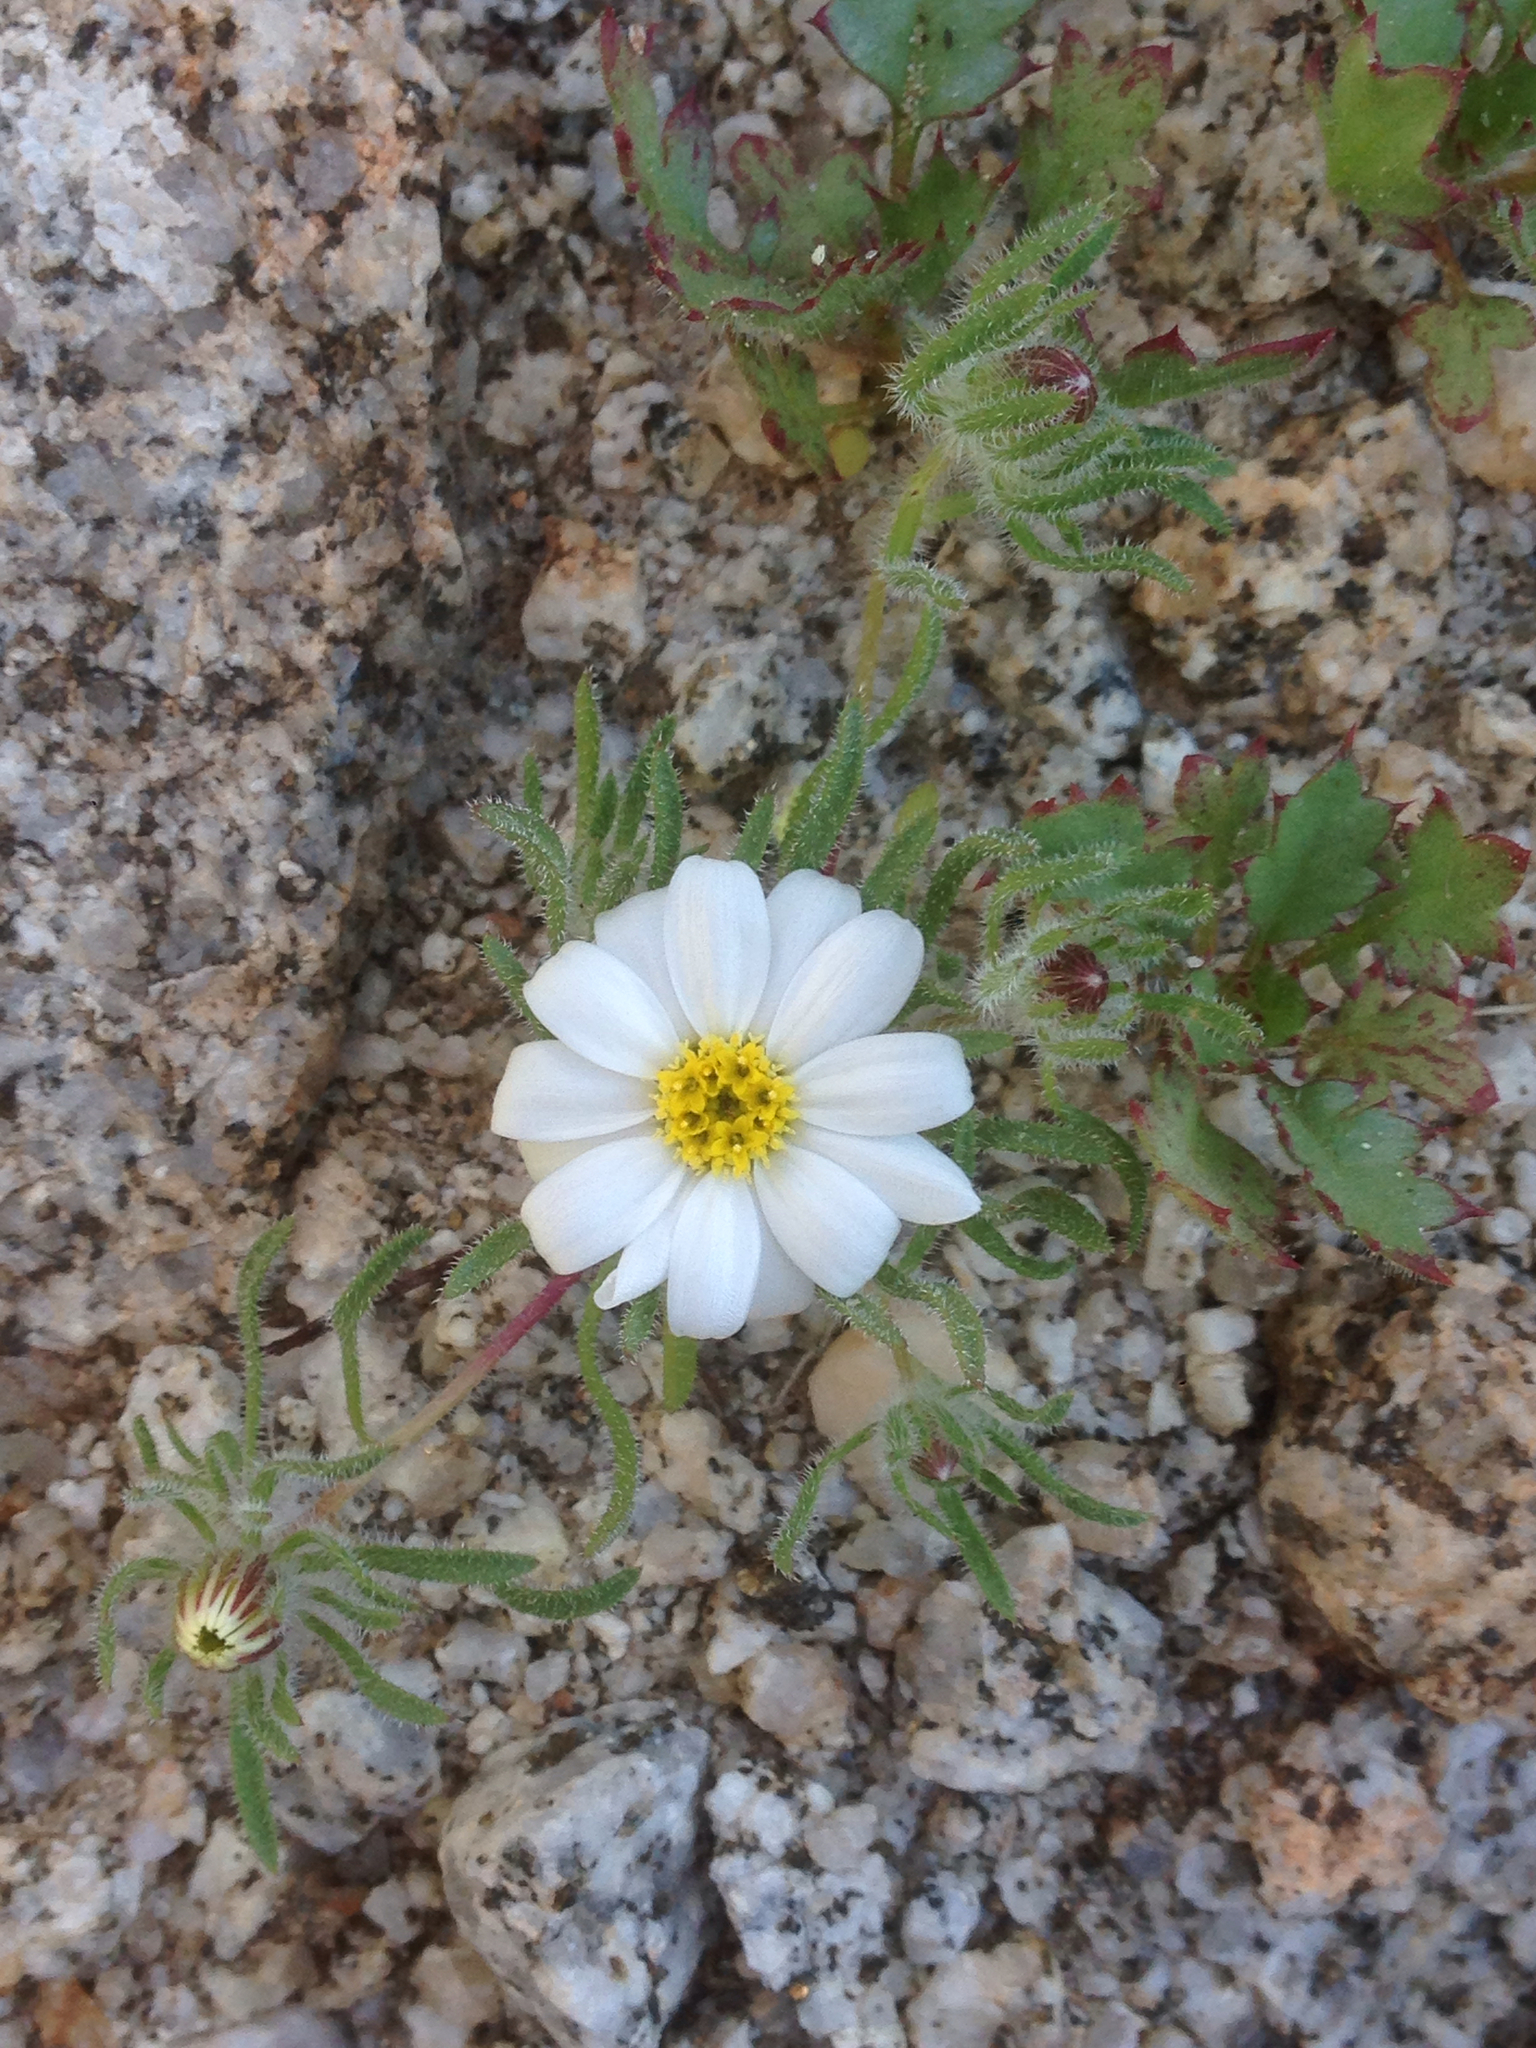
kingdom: Plantae
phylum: Tracheophyta
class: Magnoliopsida
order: Asterales
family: Asteraceae
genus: Monoptilon
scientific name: Monoptilon bellioides
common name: Bristly desertstar
